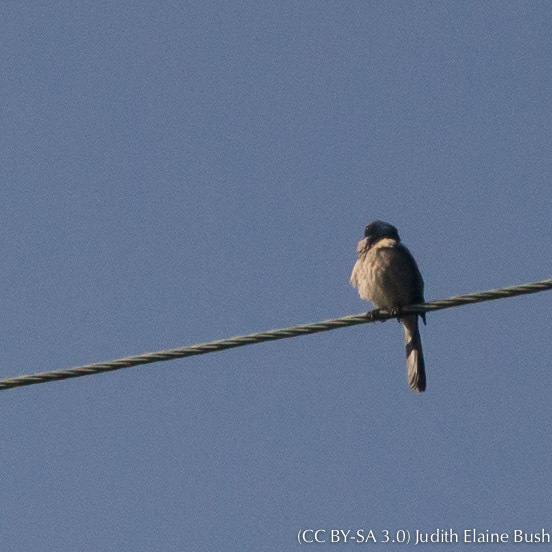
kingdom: Animalia
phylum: Chordata
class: Aves
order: Passeriformes
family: Corvidae
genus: Aphelocoma
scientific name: Aphelocoma californica
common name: California scrub-jay
